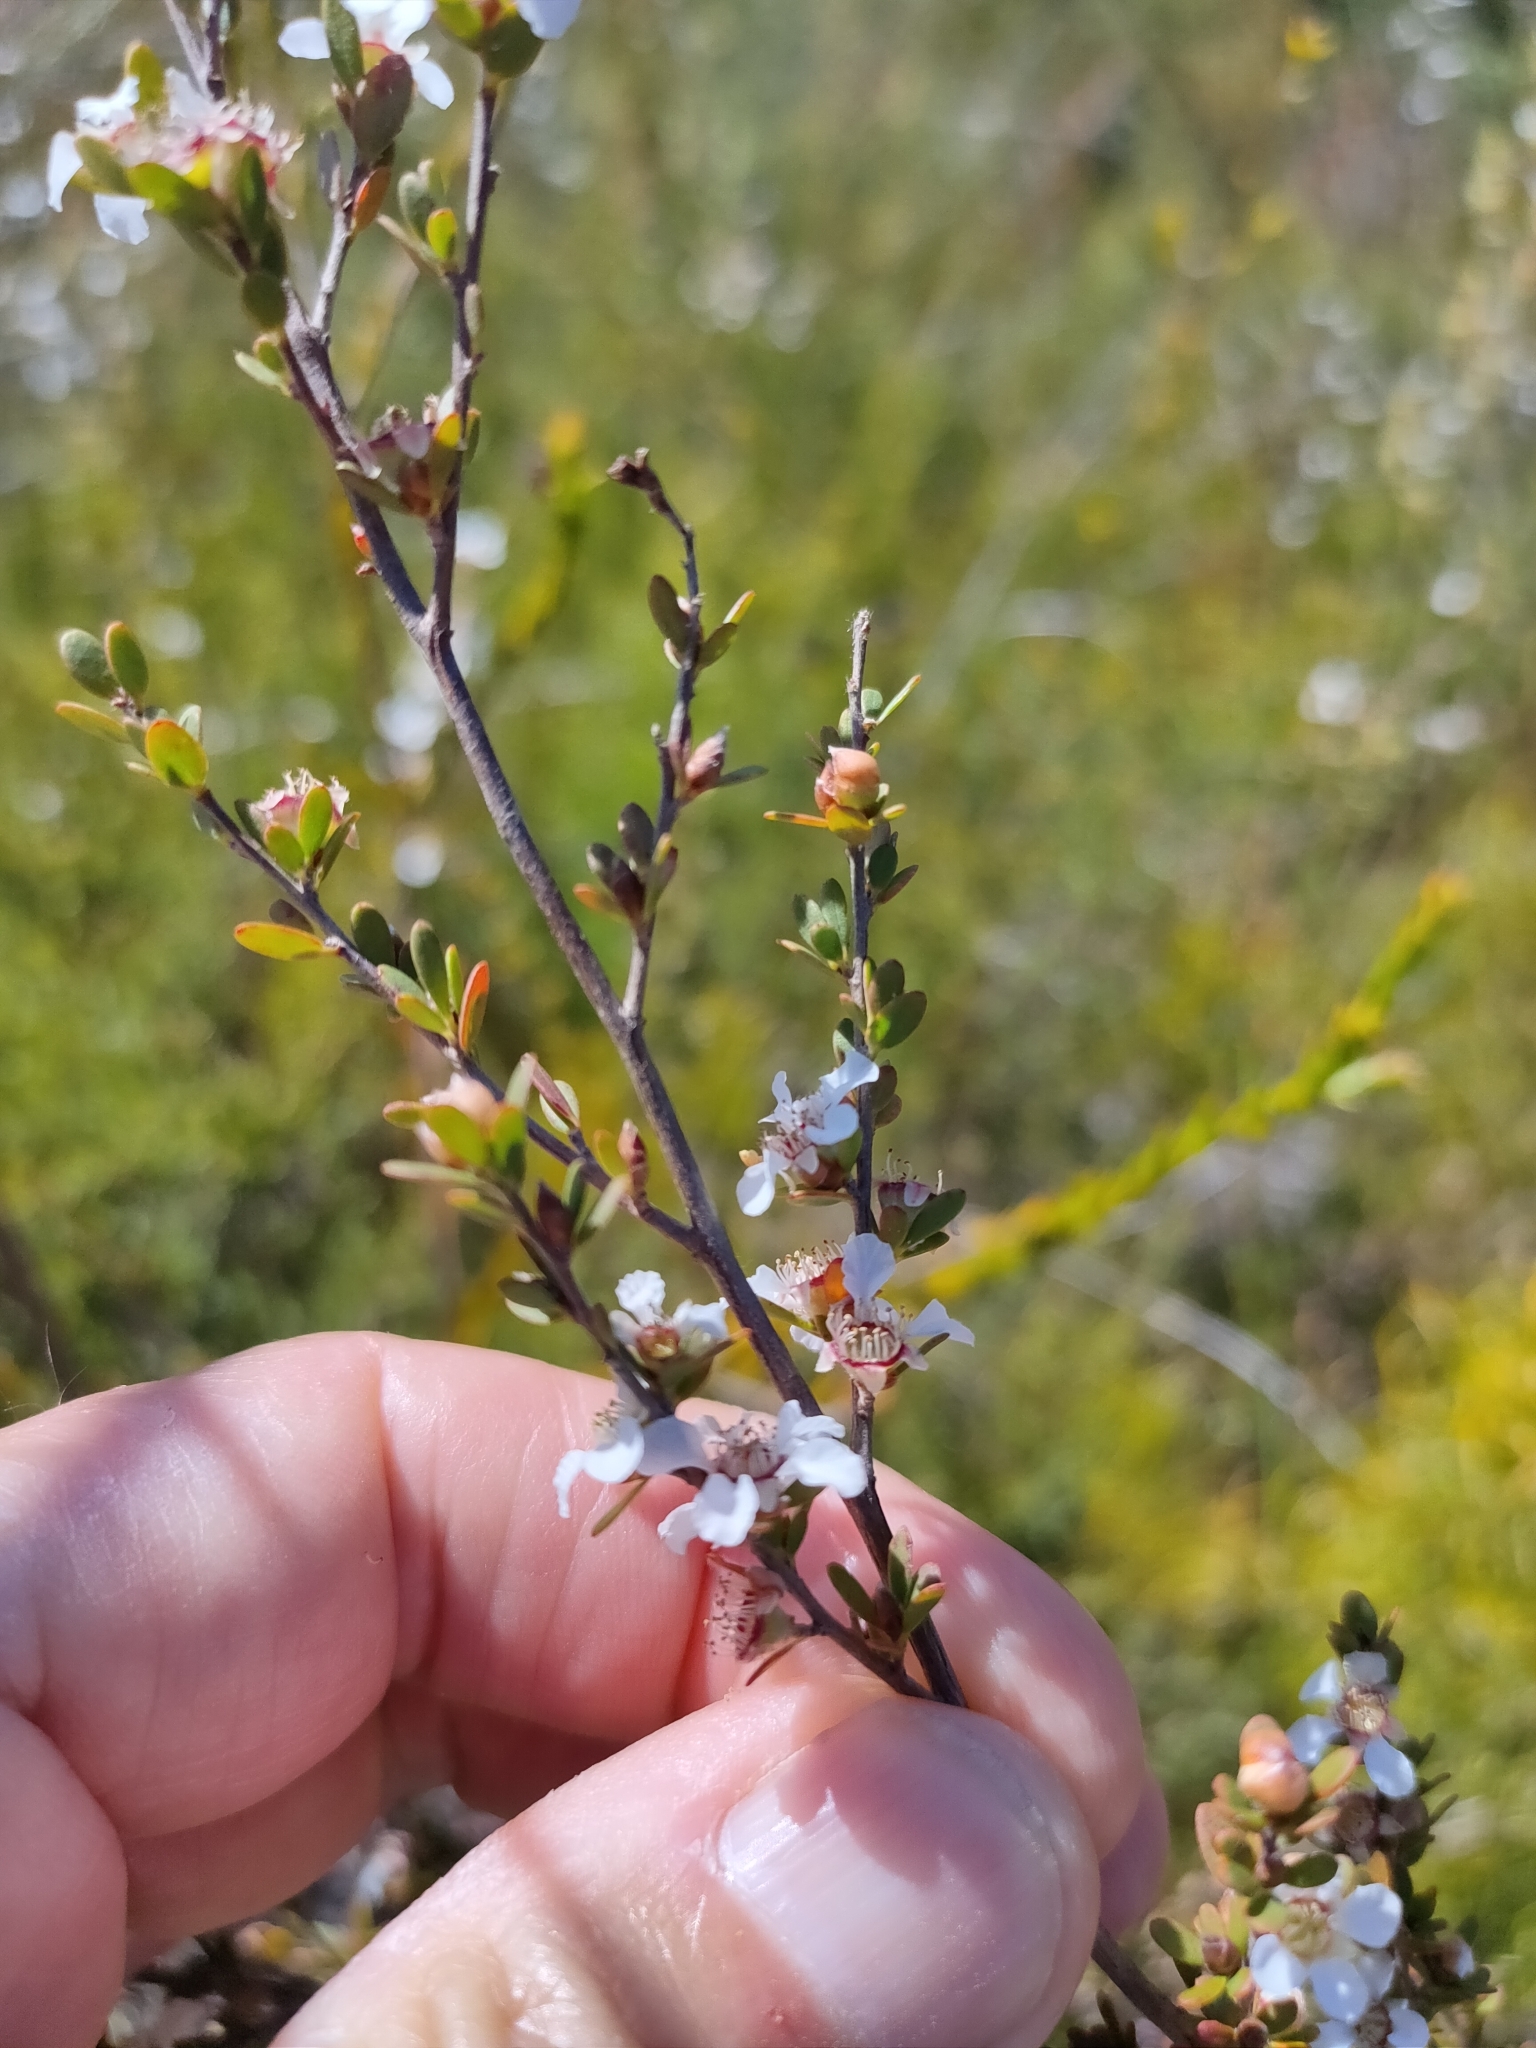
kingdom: Plantae
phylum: Tracheophyta
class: Magnoliopsida
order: Myrtales
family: Myrtaceae
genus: Leptospermum
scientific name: Leptospermum semibaccatum
